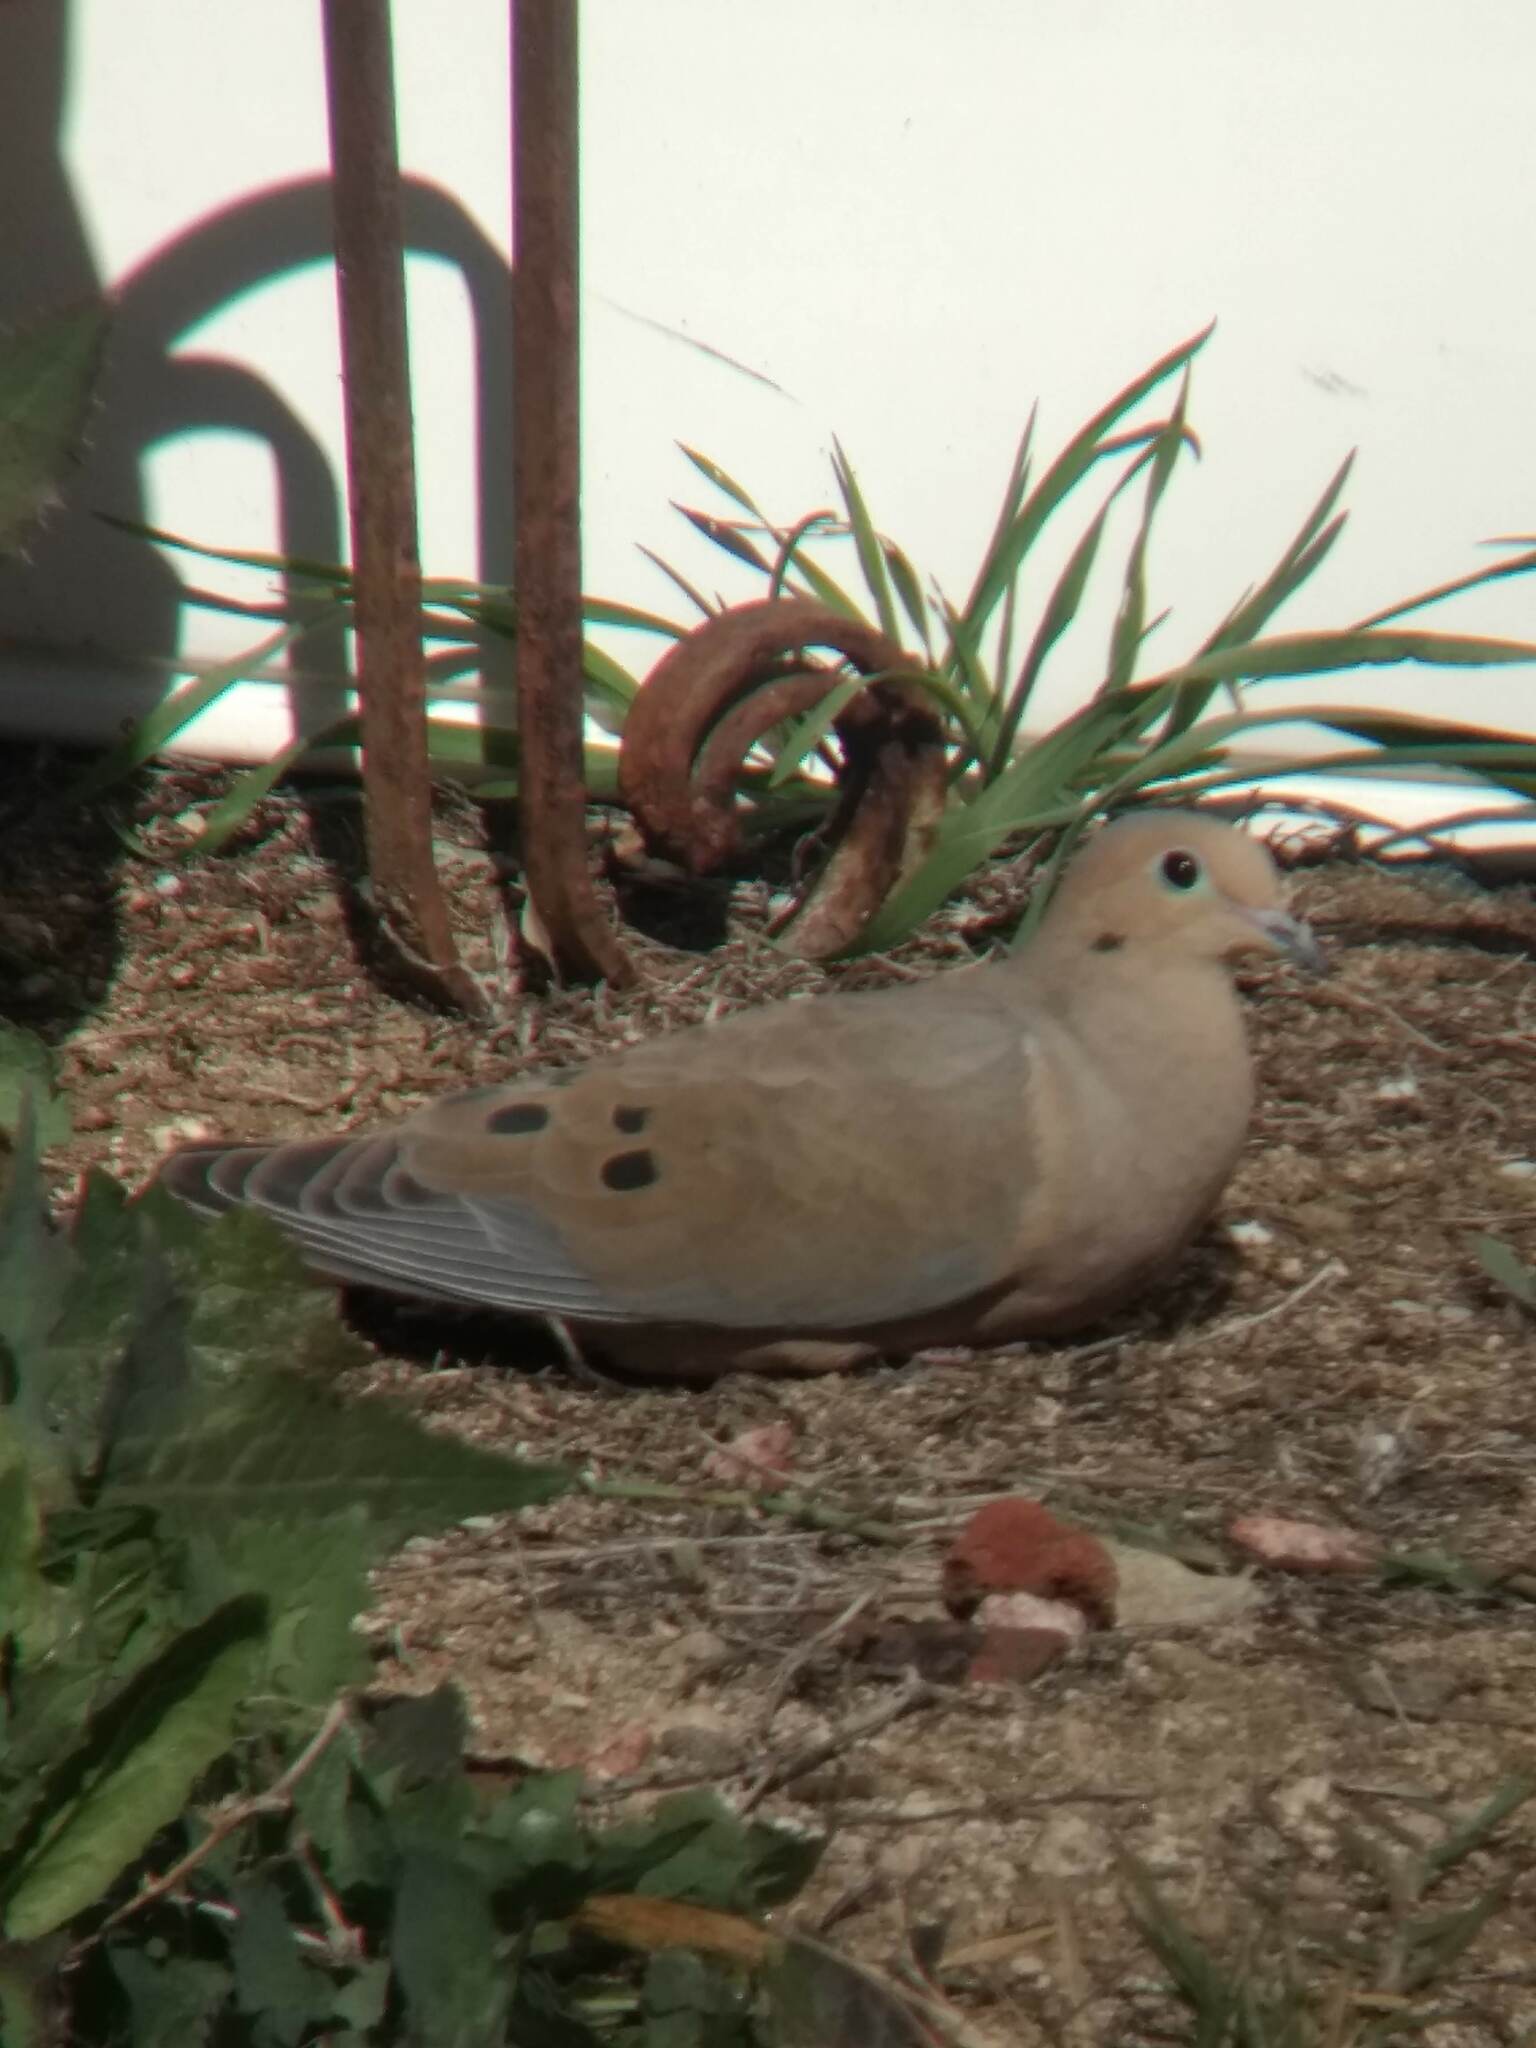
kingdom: Animalia
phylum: Chordata
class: Aves
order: Columbiformes
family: Columbidae
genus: Zenaida
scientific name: Zenaida macroura
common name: Mourning dove
